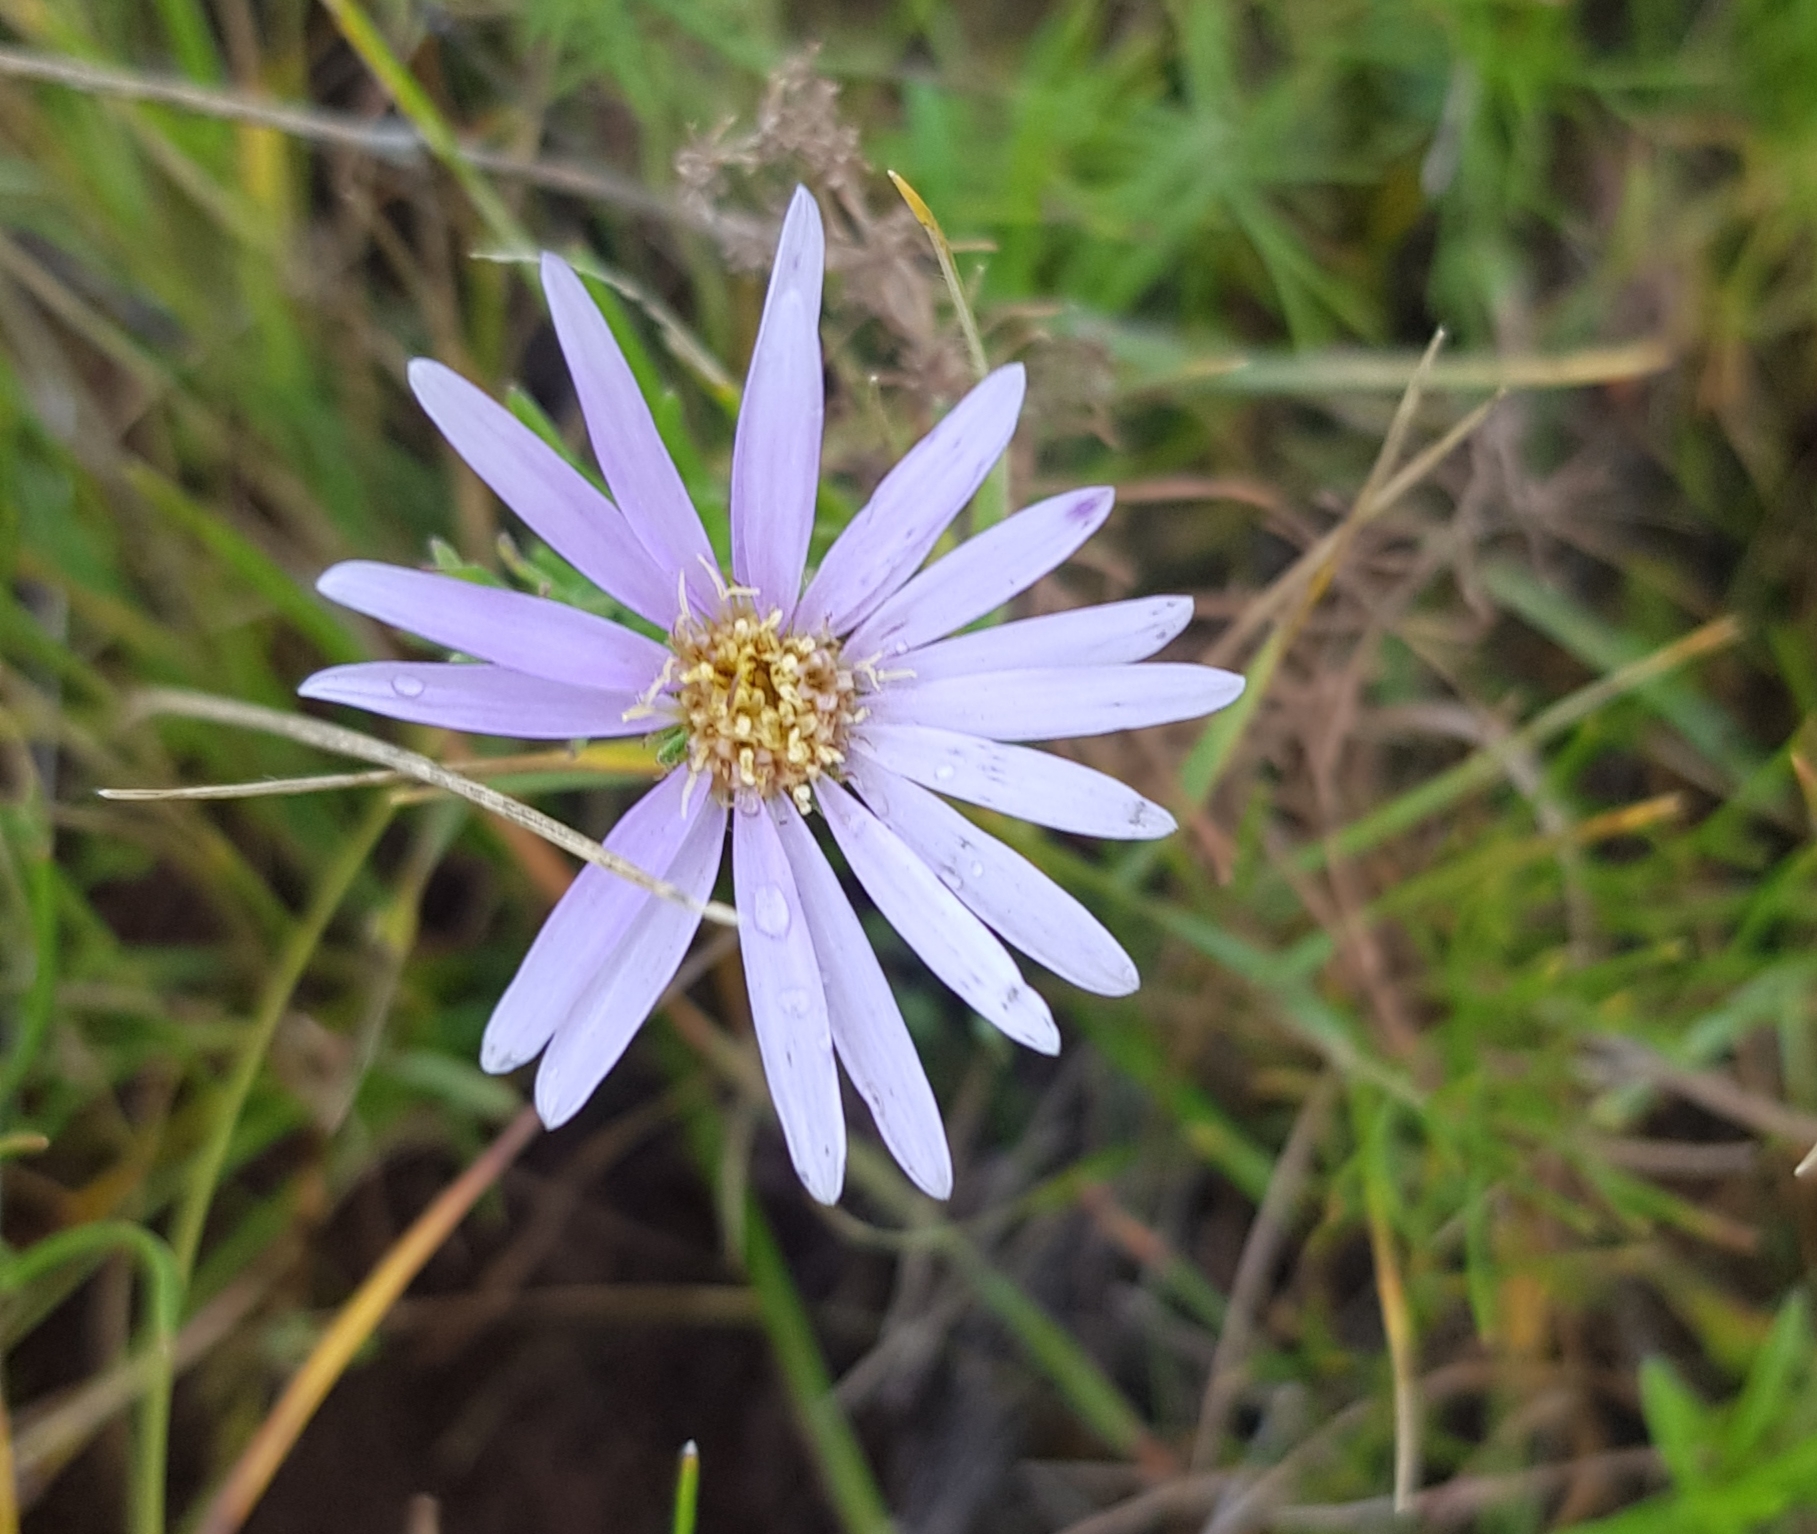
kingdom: Plantae
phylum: Tracheophyta
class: Magnoliopsida
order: Asterales
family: Asteraceae
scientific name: Asteraceae
